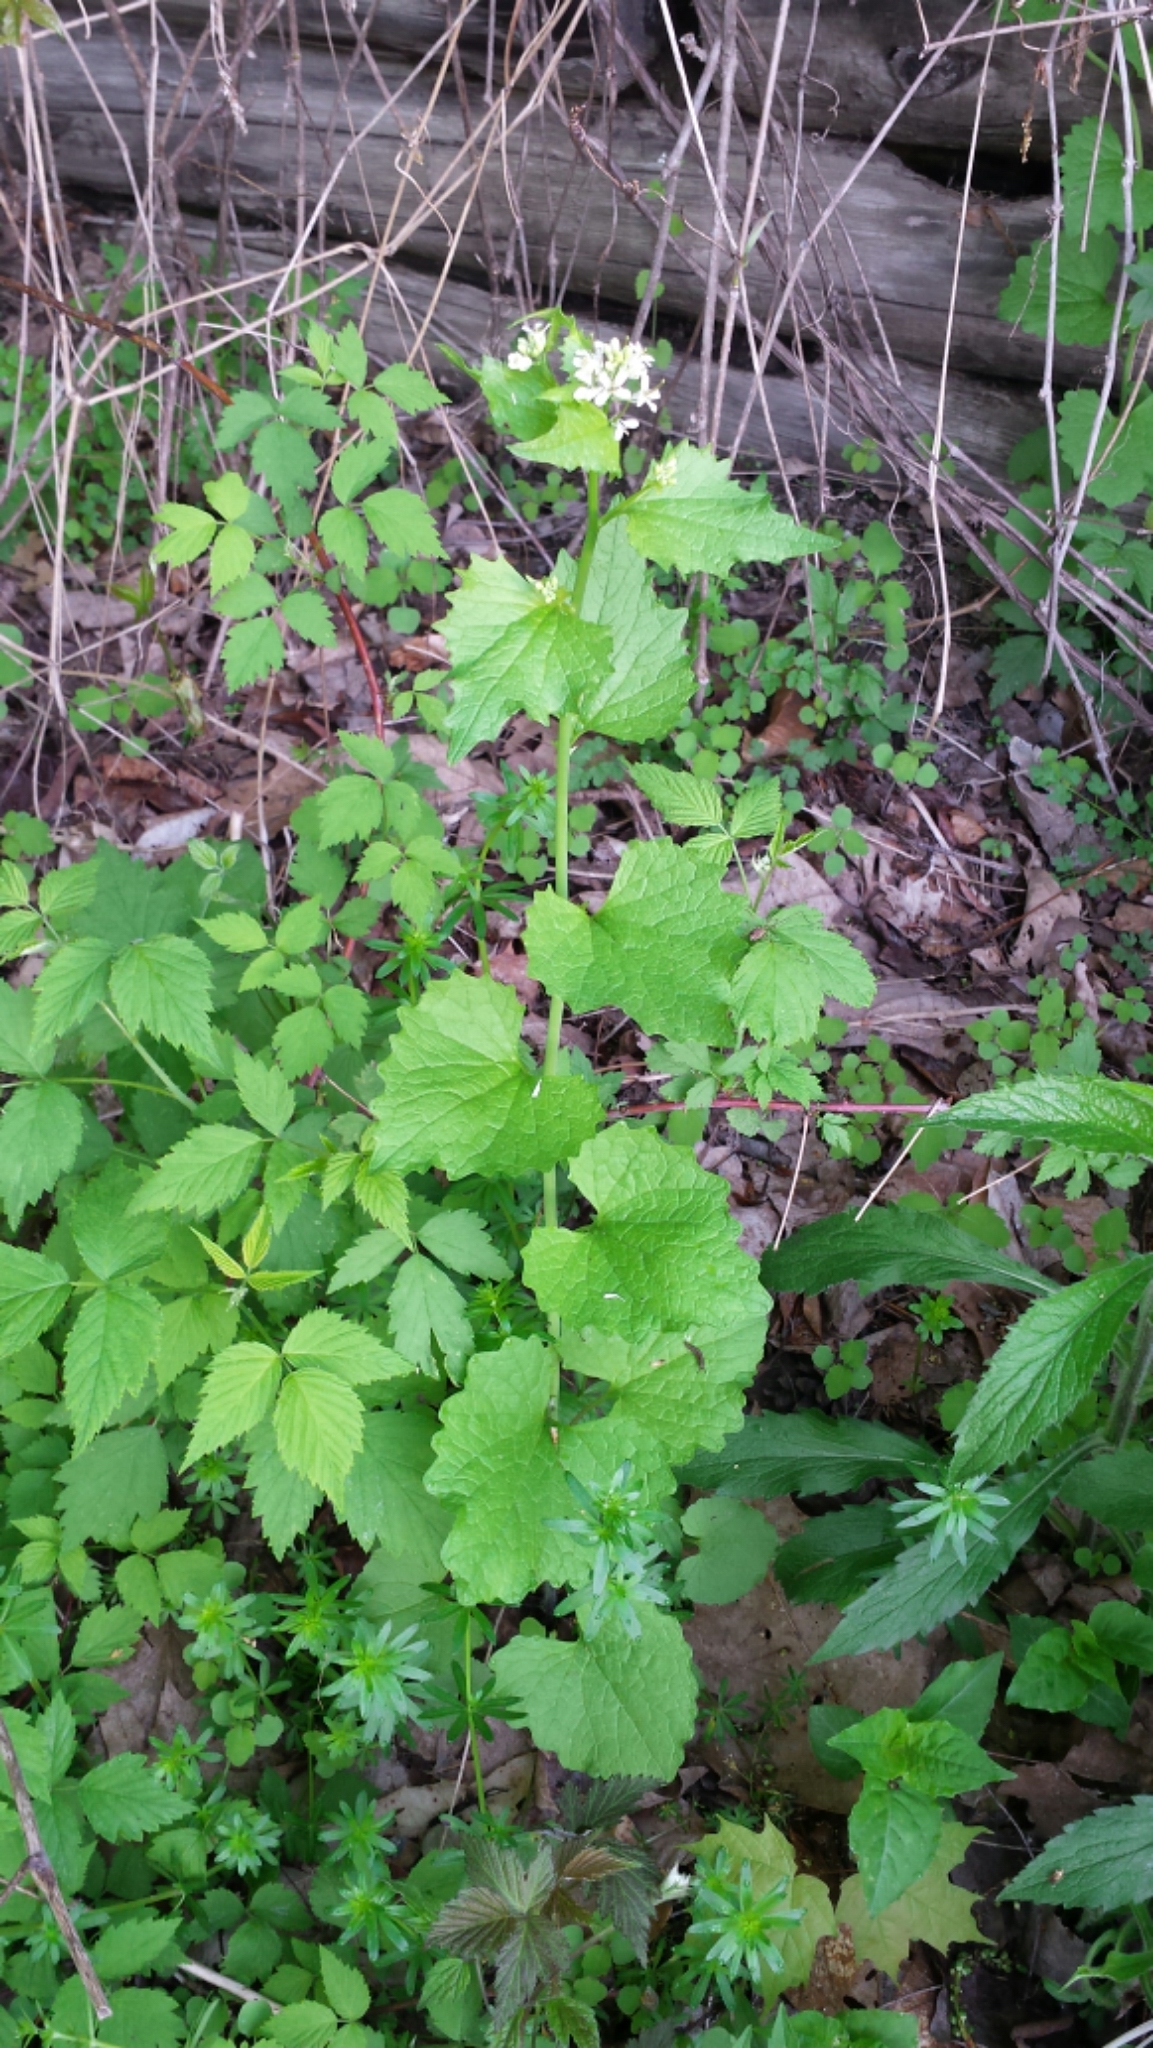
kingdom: Plantae
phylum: Tracheophyta
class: Magnoliopsida
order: Brassicales
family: Brassicaceae
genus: Alliaria
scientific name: Alliaria petiolata
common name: Garlic mustard
